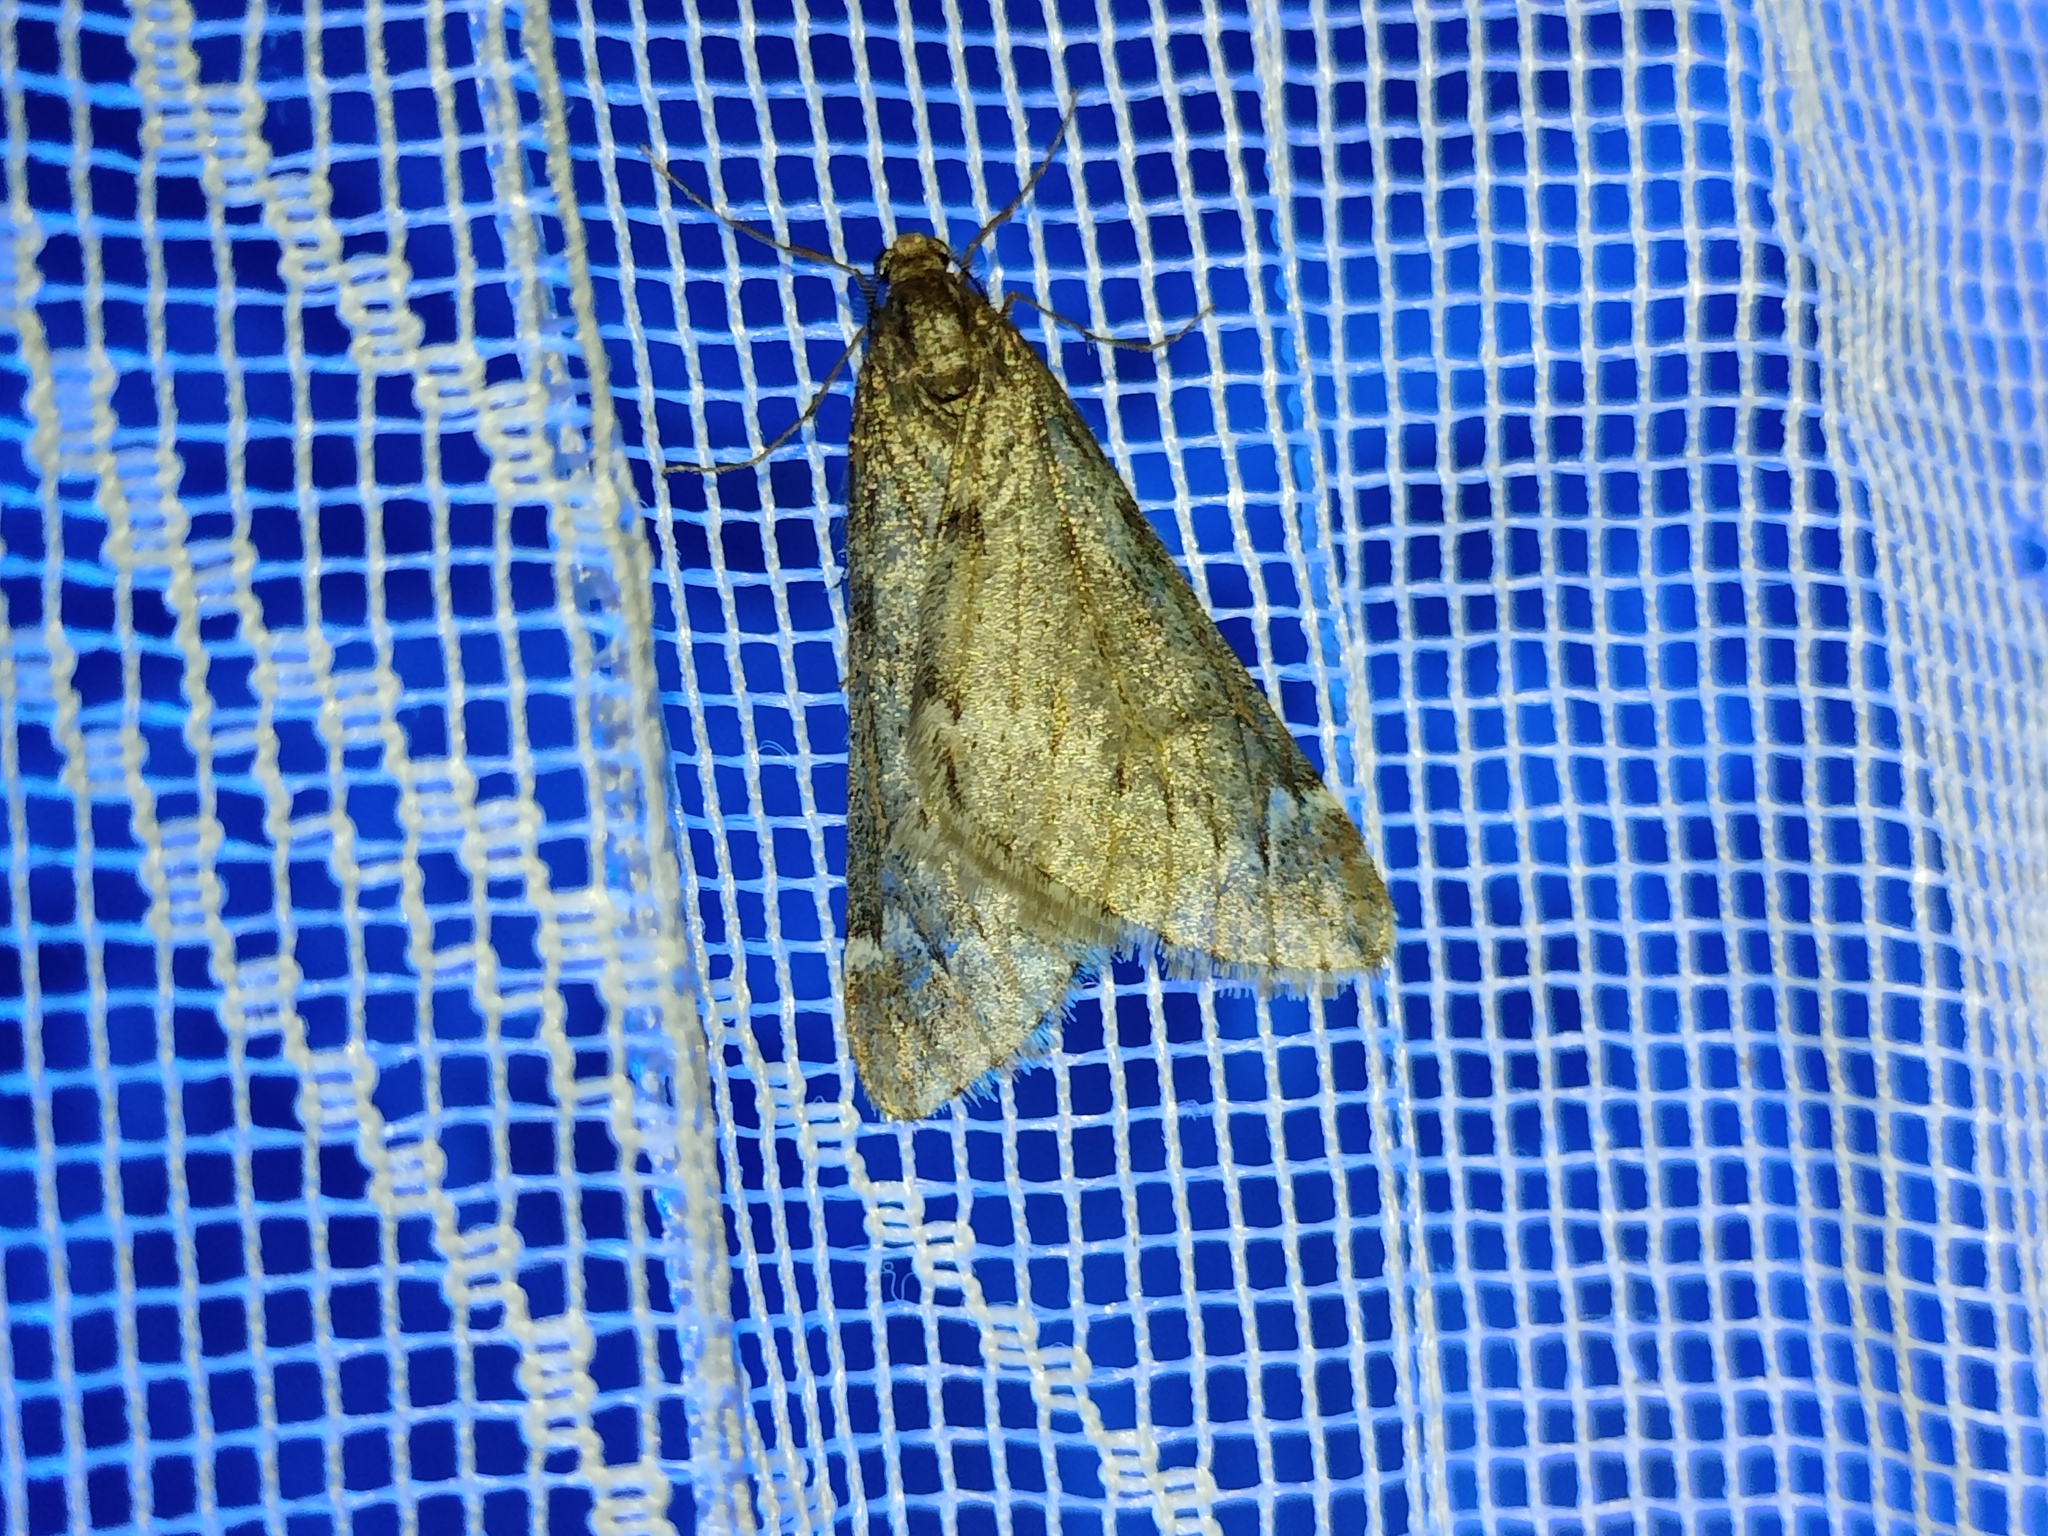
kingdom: Animalia
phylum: Arthropoda
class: Insecta
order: Lepidoptera
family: Geometridae
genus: Alsophila
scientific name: Alsophila aescularia
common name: March moth
